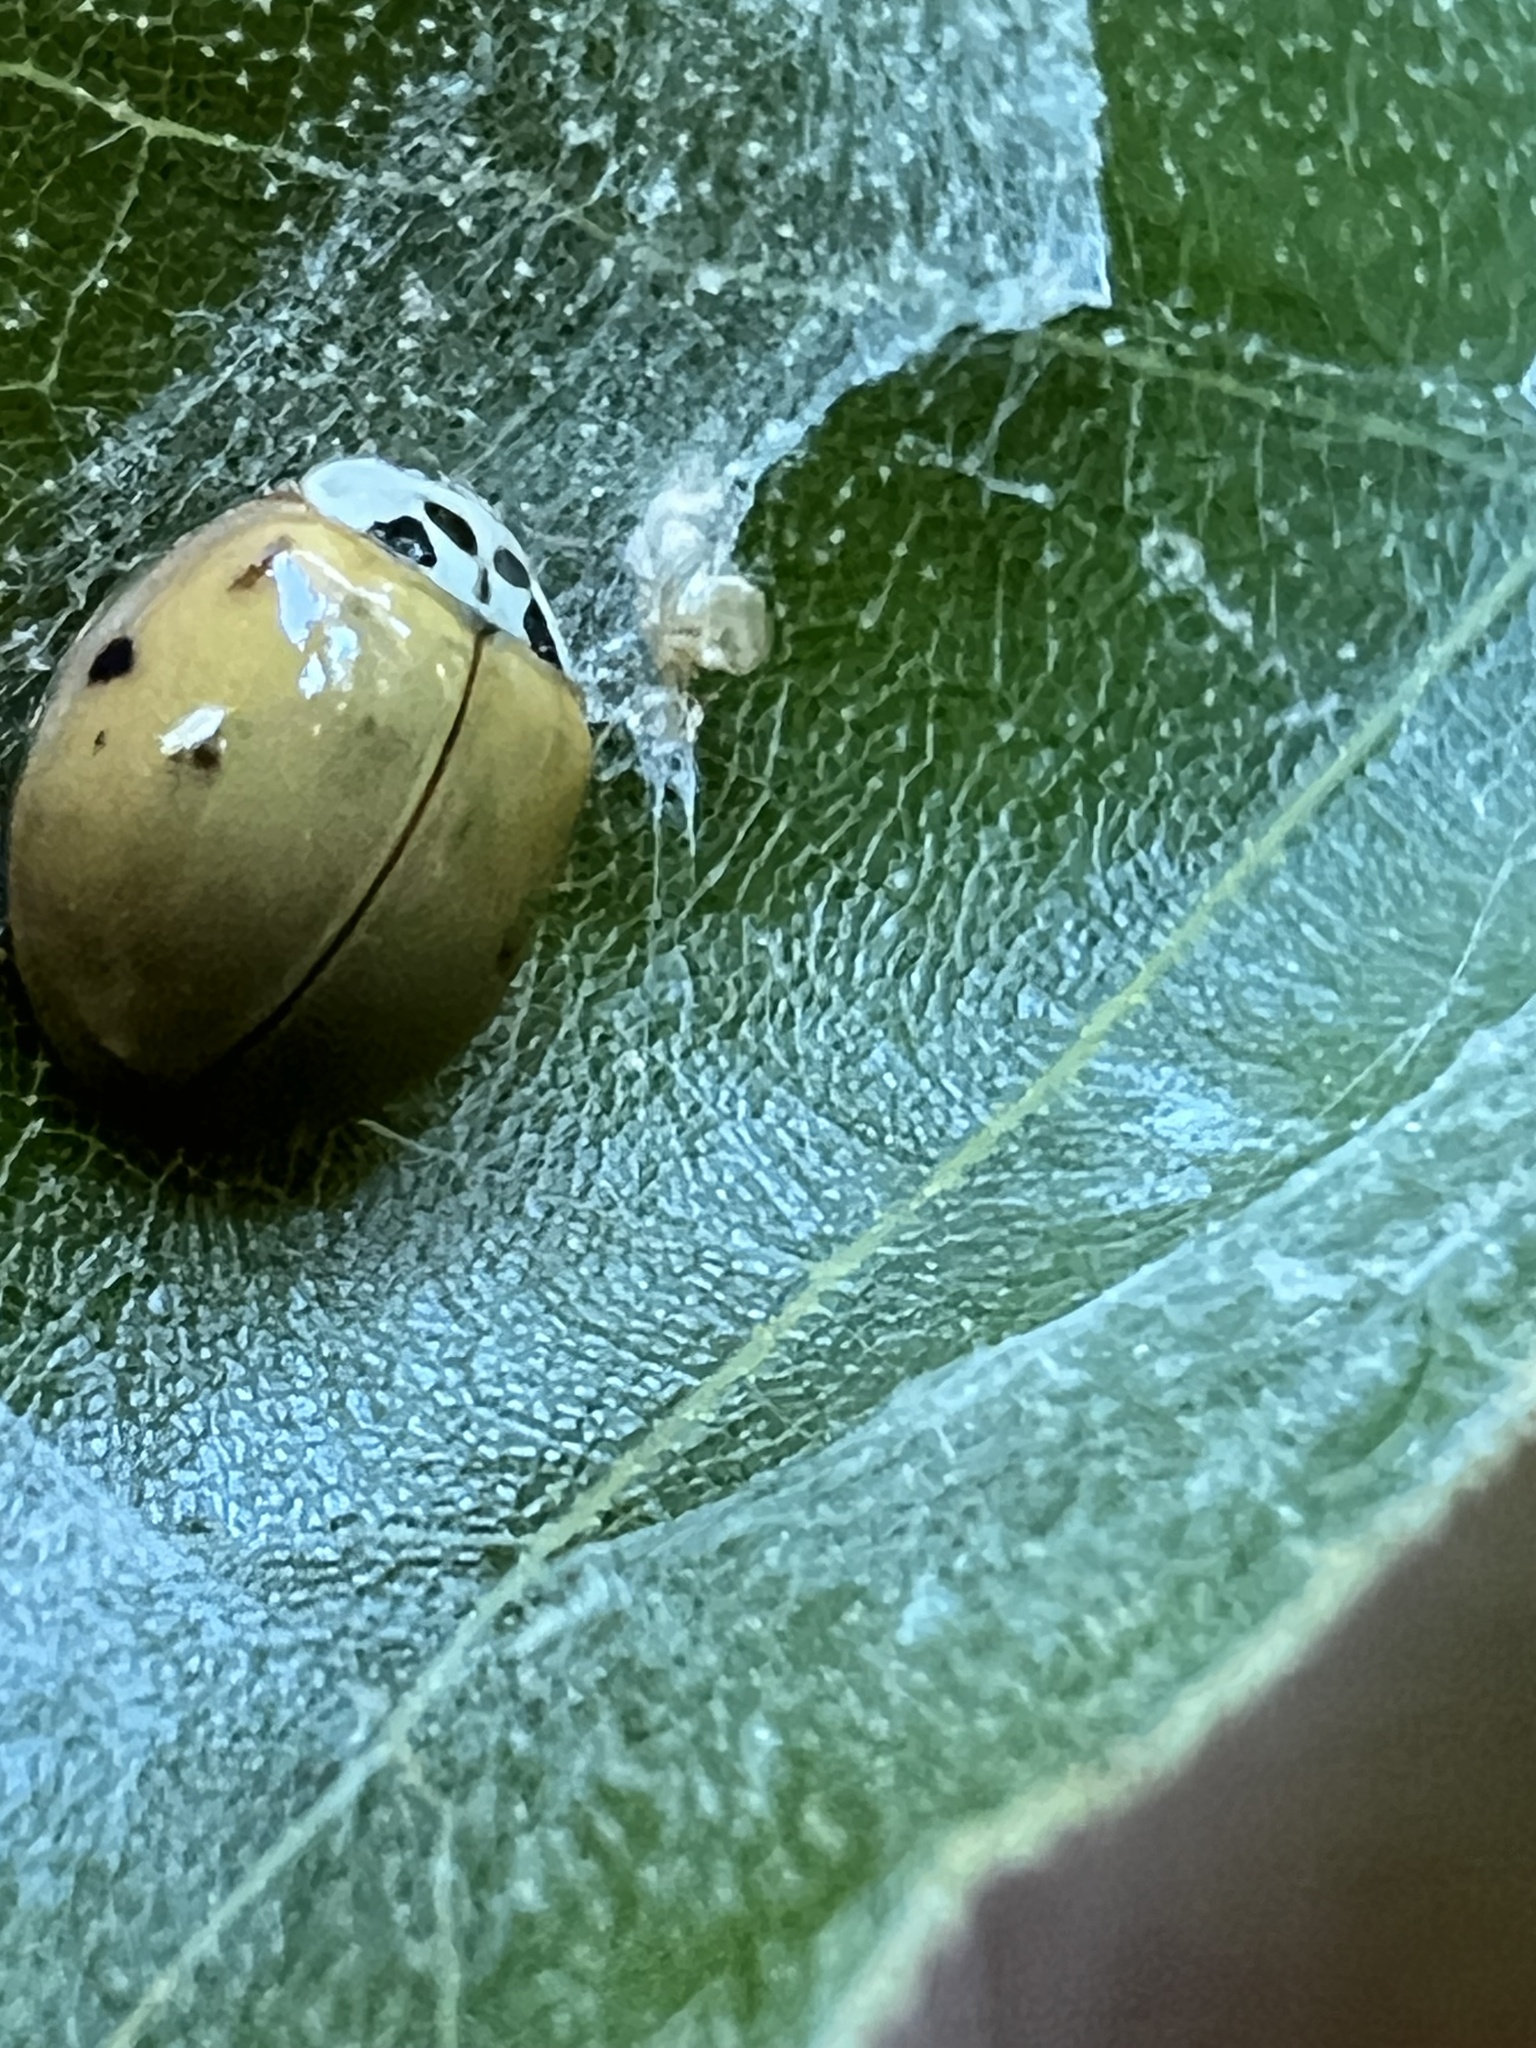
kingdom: Animalia
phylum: Arthropoda
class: Insecta
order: Coleoptera
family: Coccinellidae
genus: Harmonia
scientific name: Harmonia axyridis
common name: Harlequin ladybird
